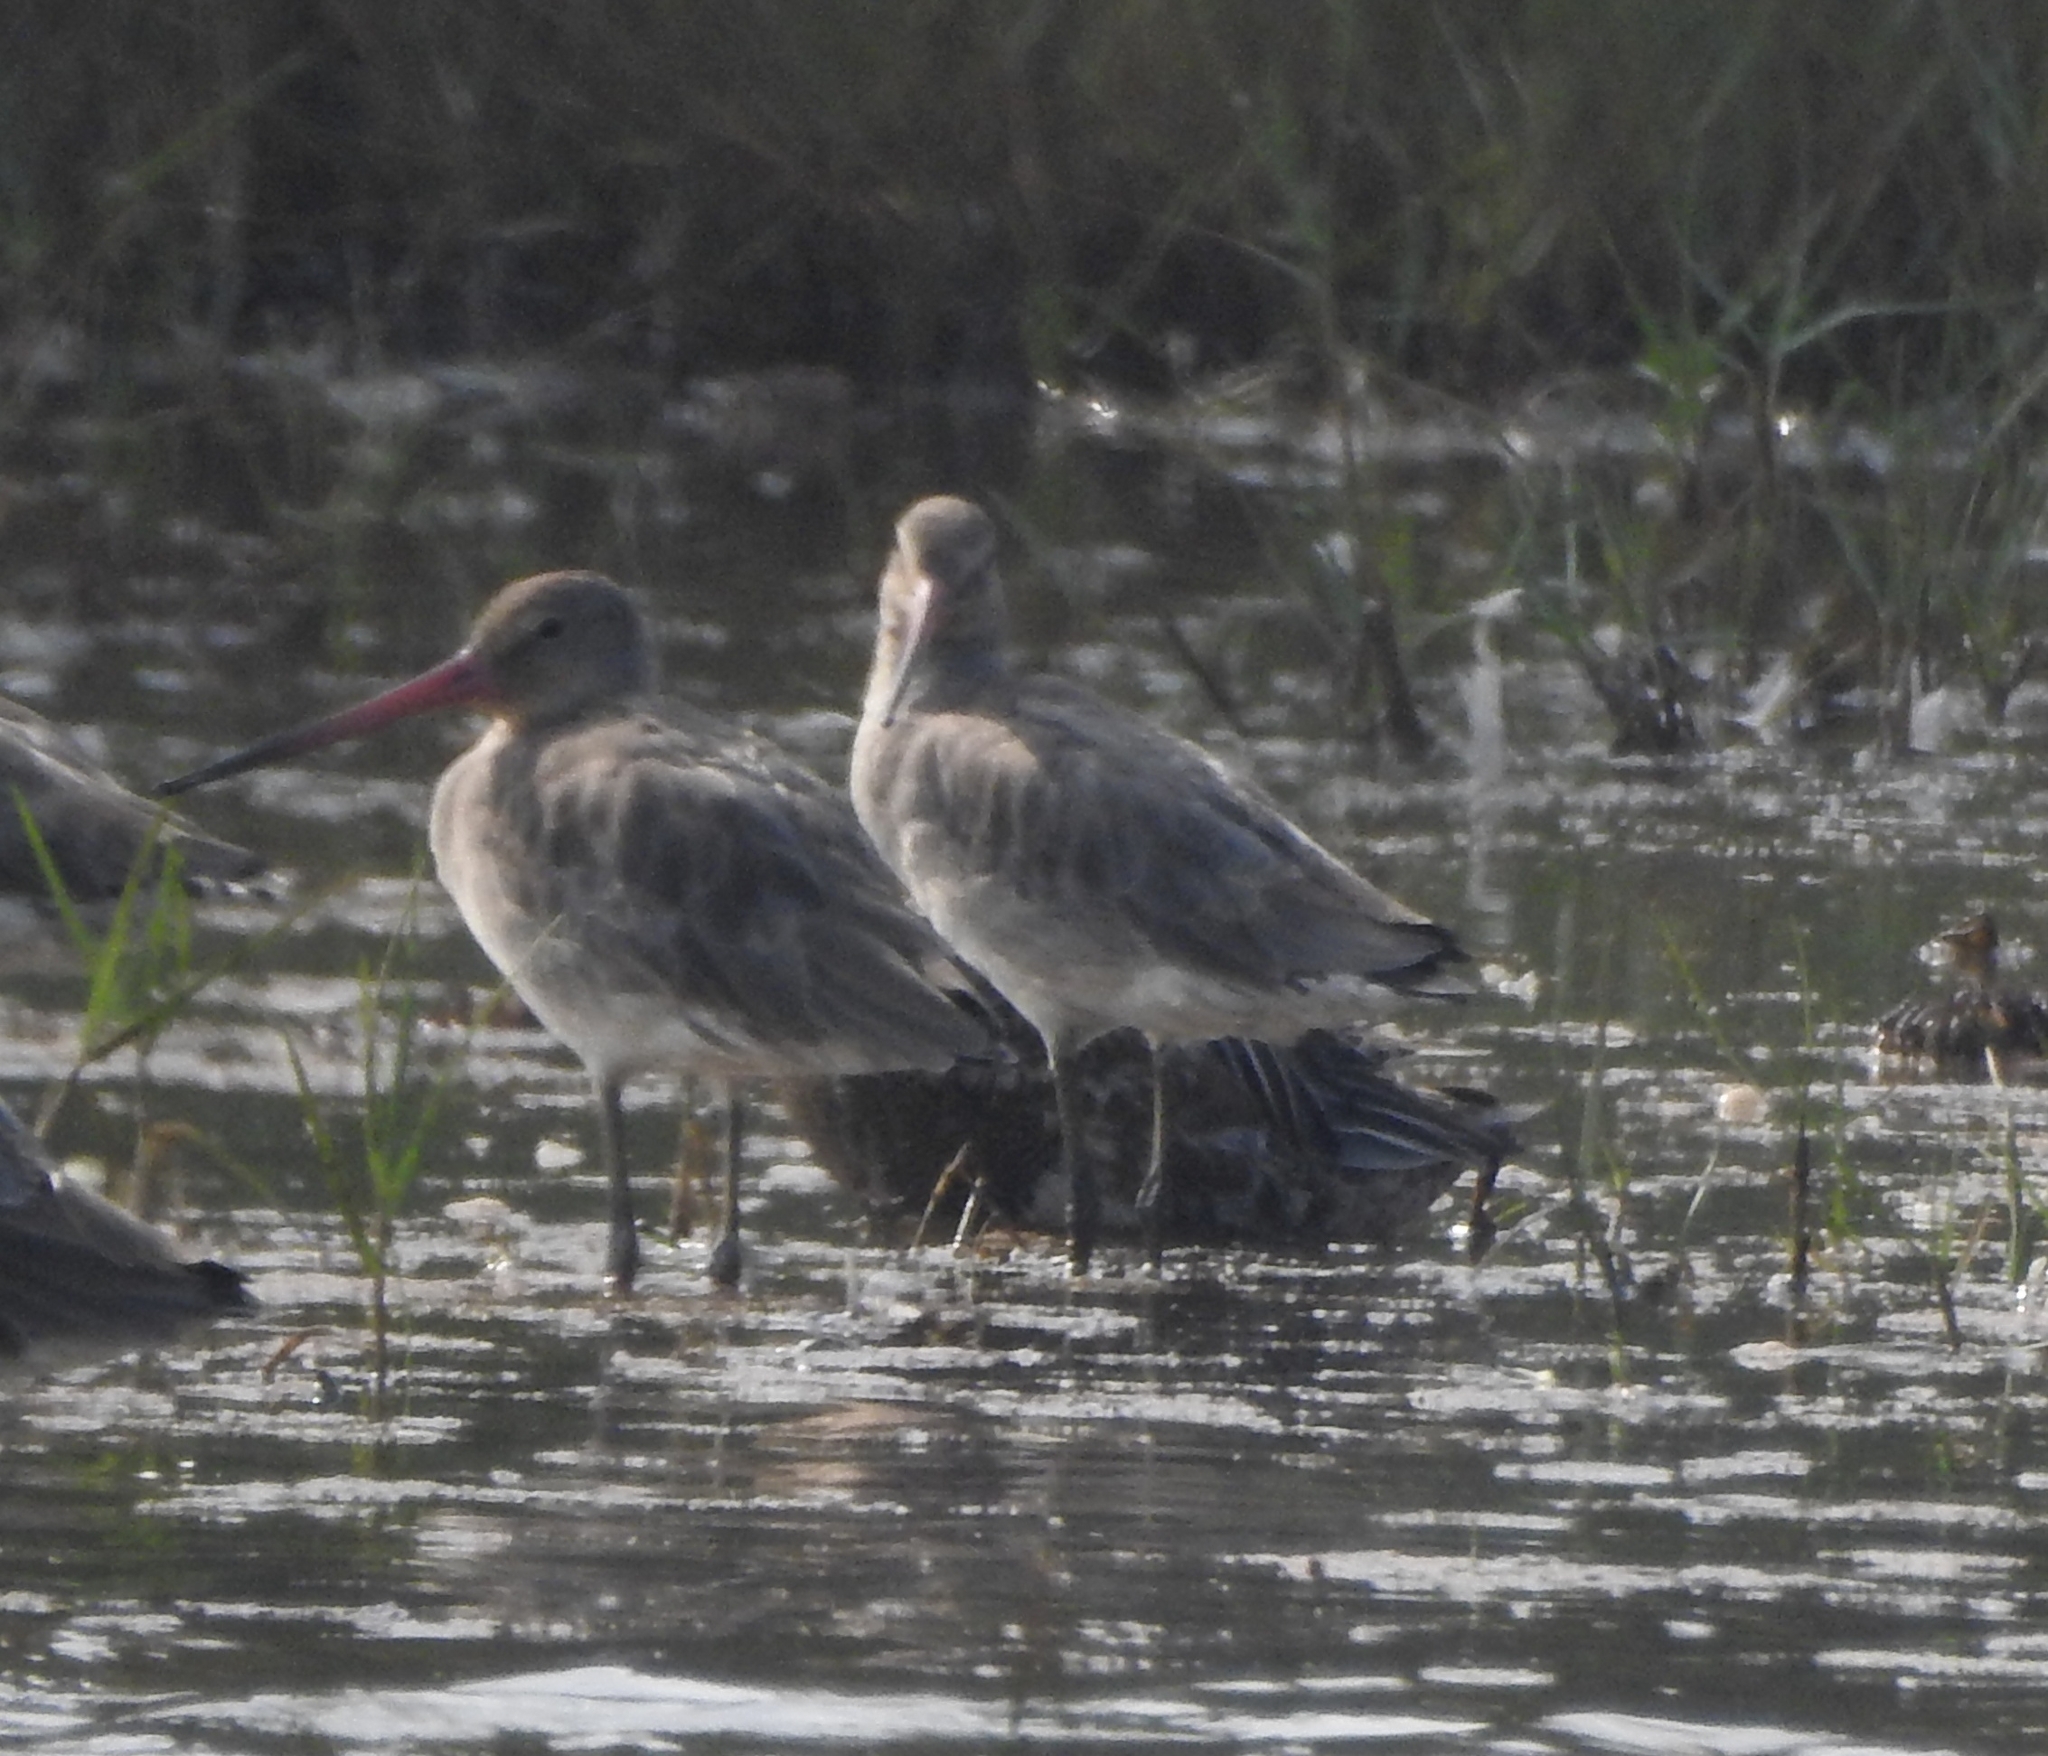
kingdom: Animalia
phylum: Chordata
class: Aves
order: Charadriiformes
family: Scolopacidae
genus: Limosa
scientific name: Limosa limosa
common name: Black-tailed godwit
